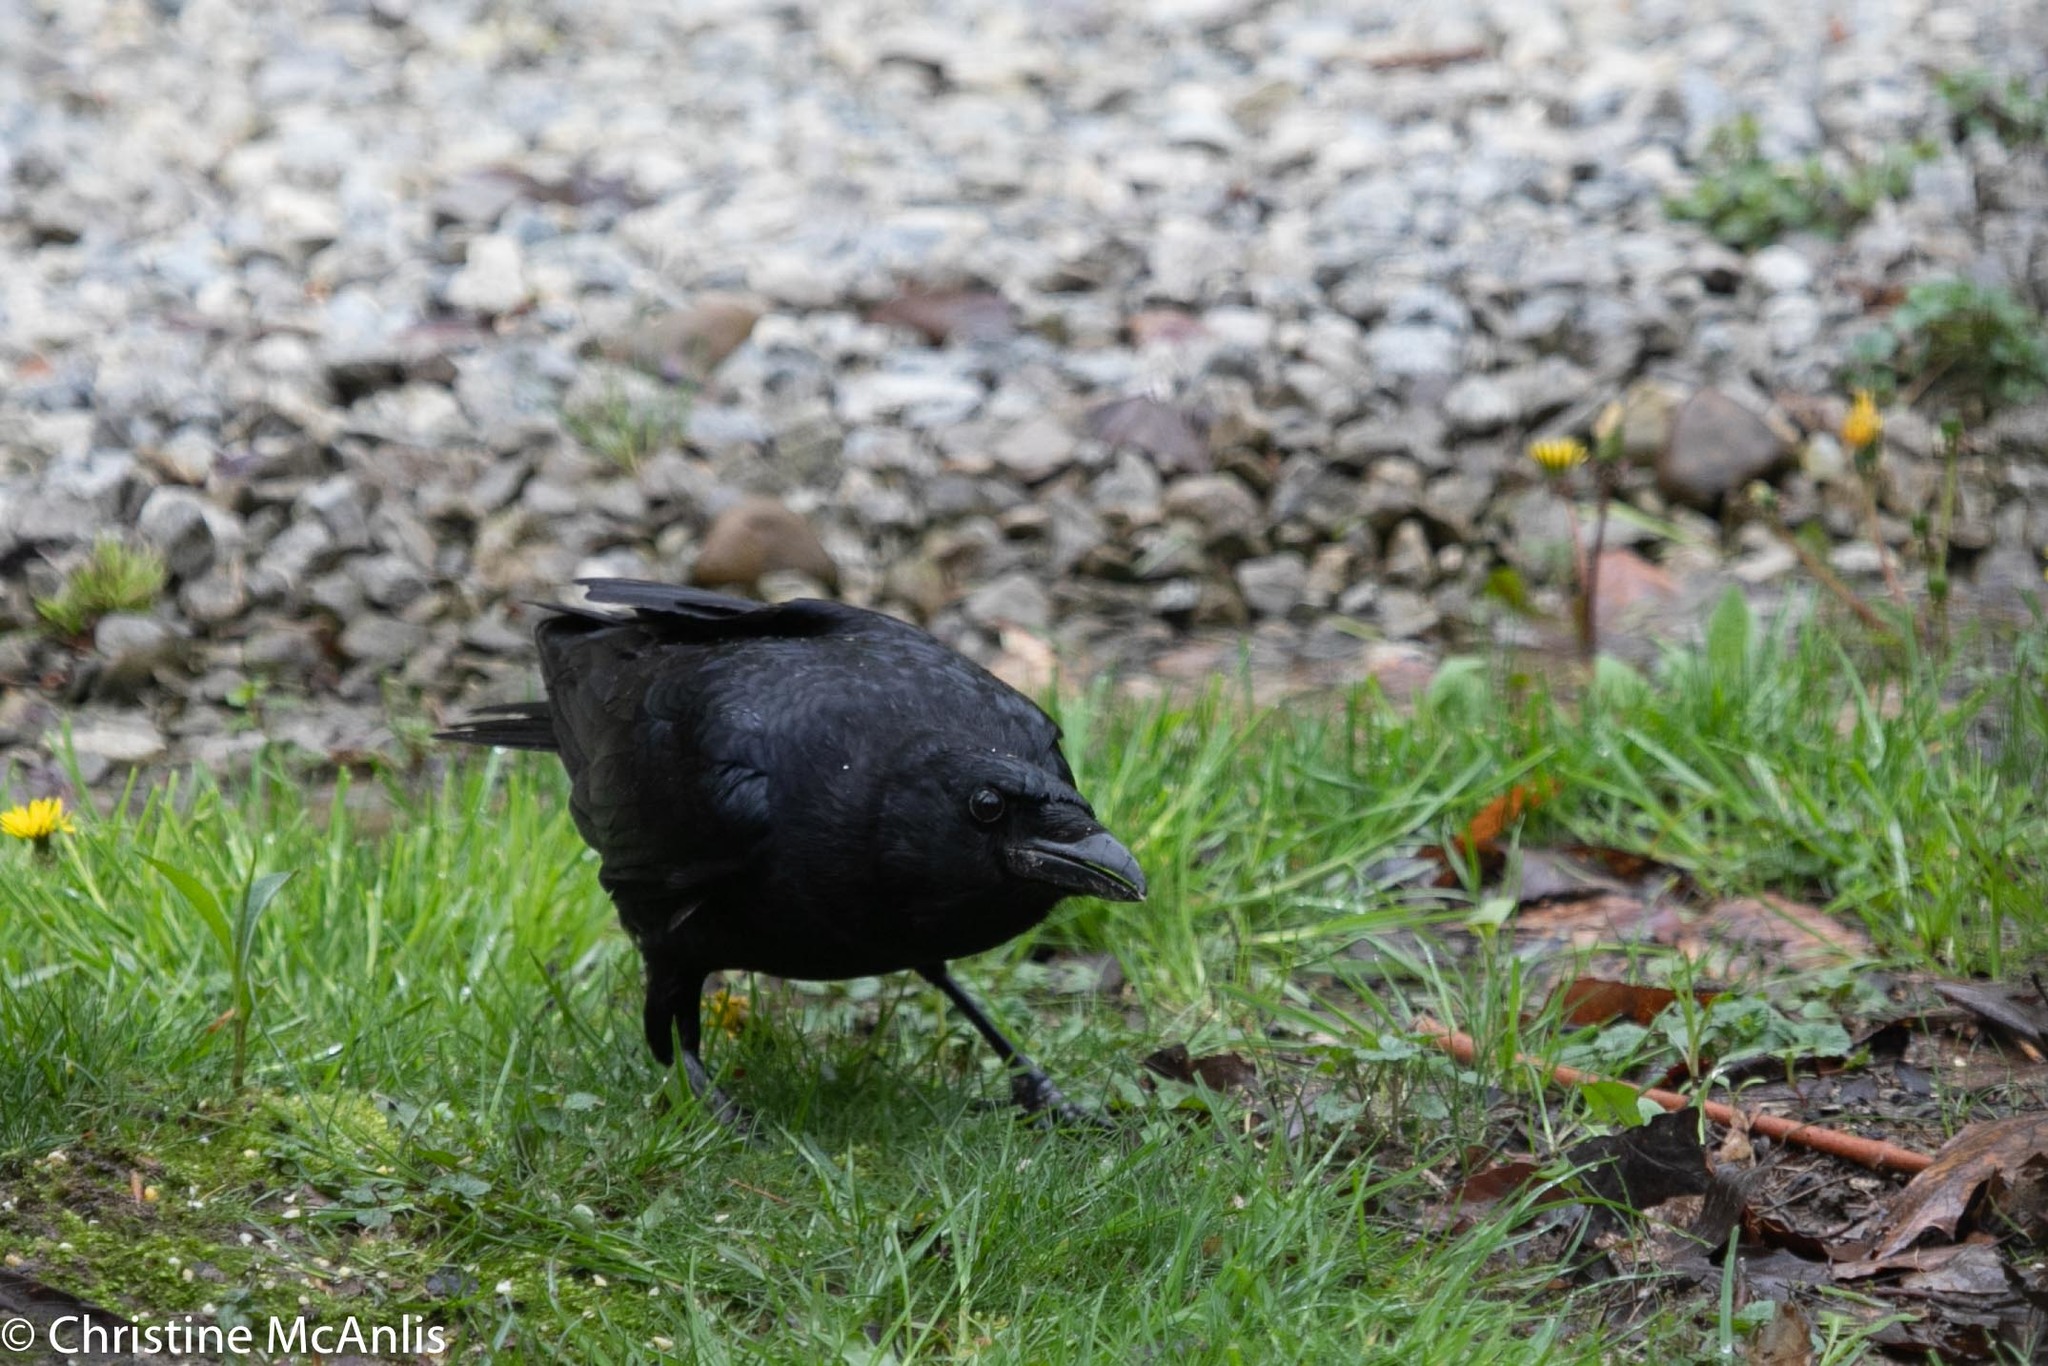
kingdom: Animalia
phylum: Chordata
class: Aves
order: Passeriformes
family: Corvidae
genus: Corvus
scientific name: Corvus brachyrhynchos
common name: American crow
